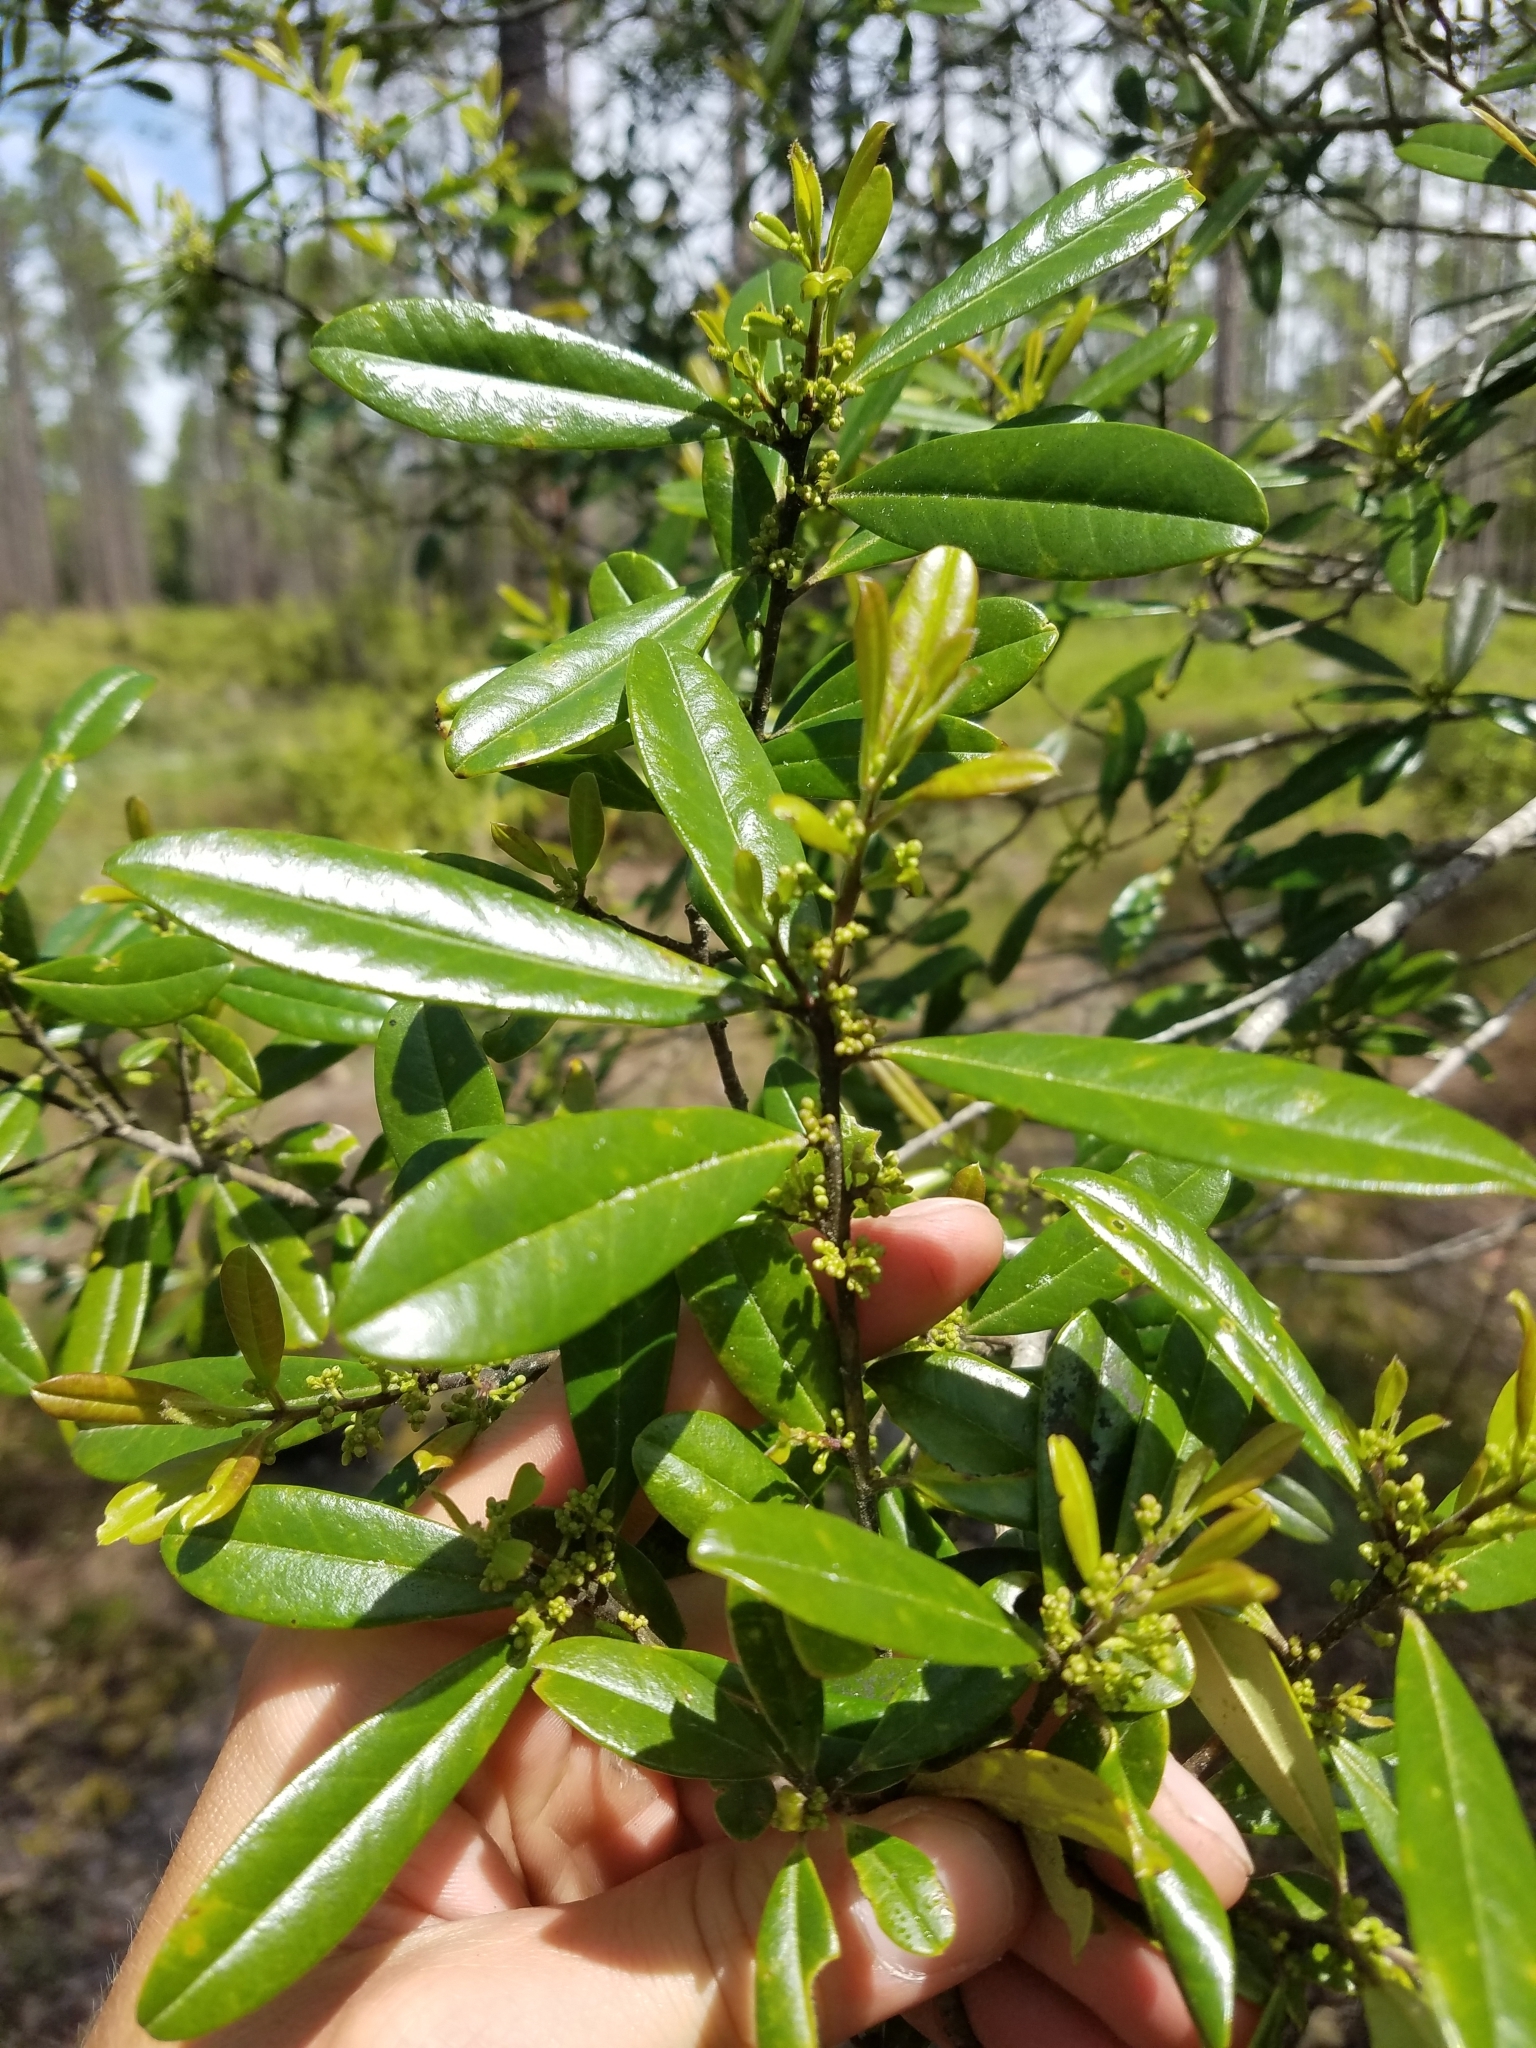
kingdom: Plantae
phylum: Tracheophyta
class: Magnoliopsida
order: Aquifoliales
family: Aquifoliaceae
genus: Ilex
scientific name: Ilex cassine
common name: Dahoon
